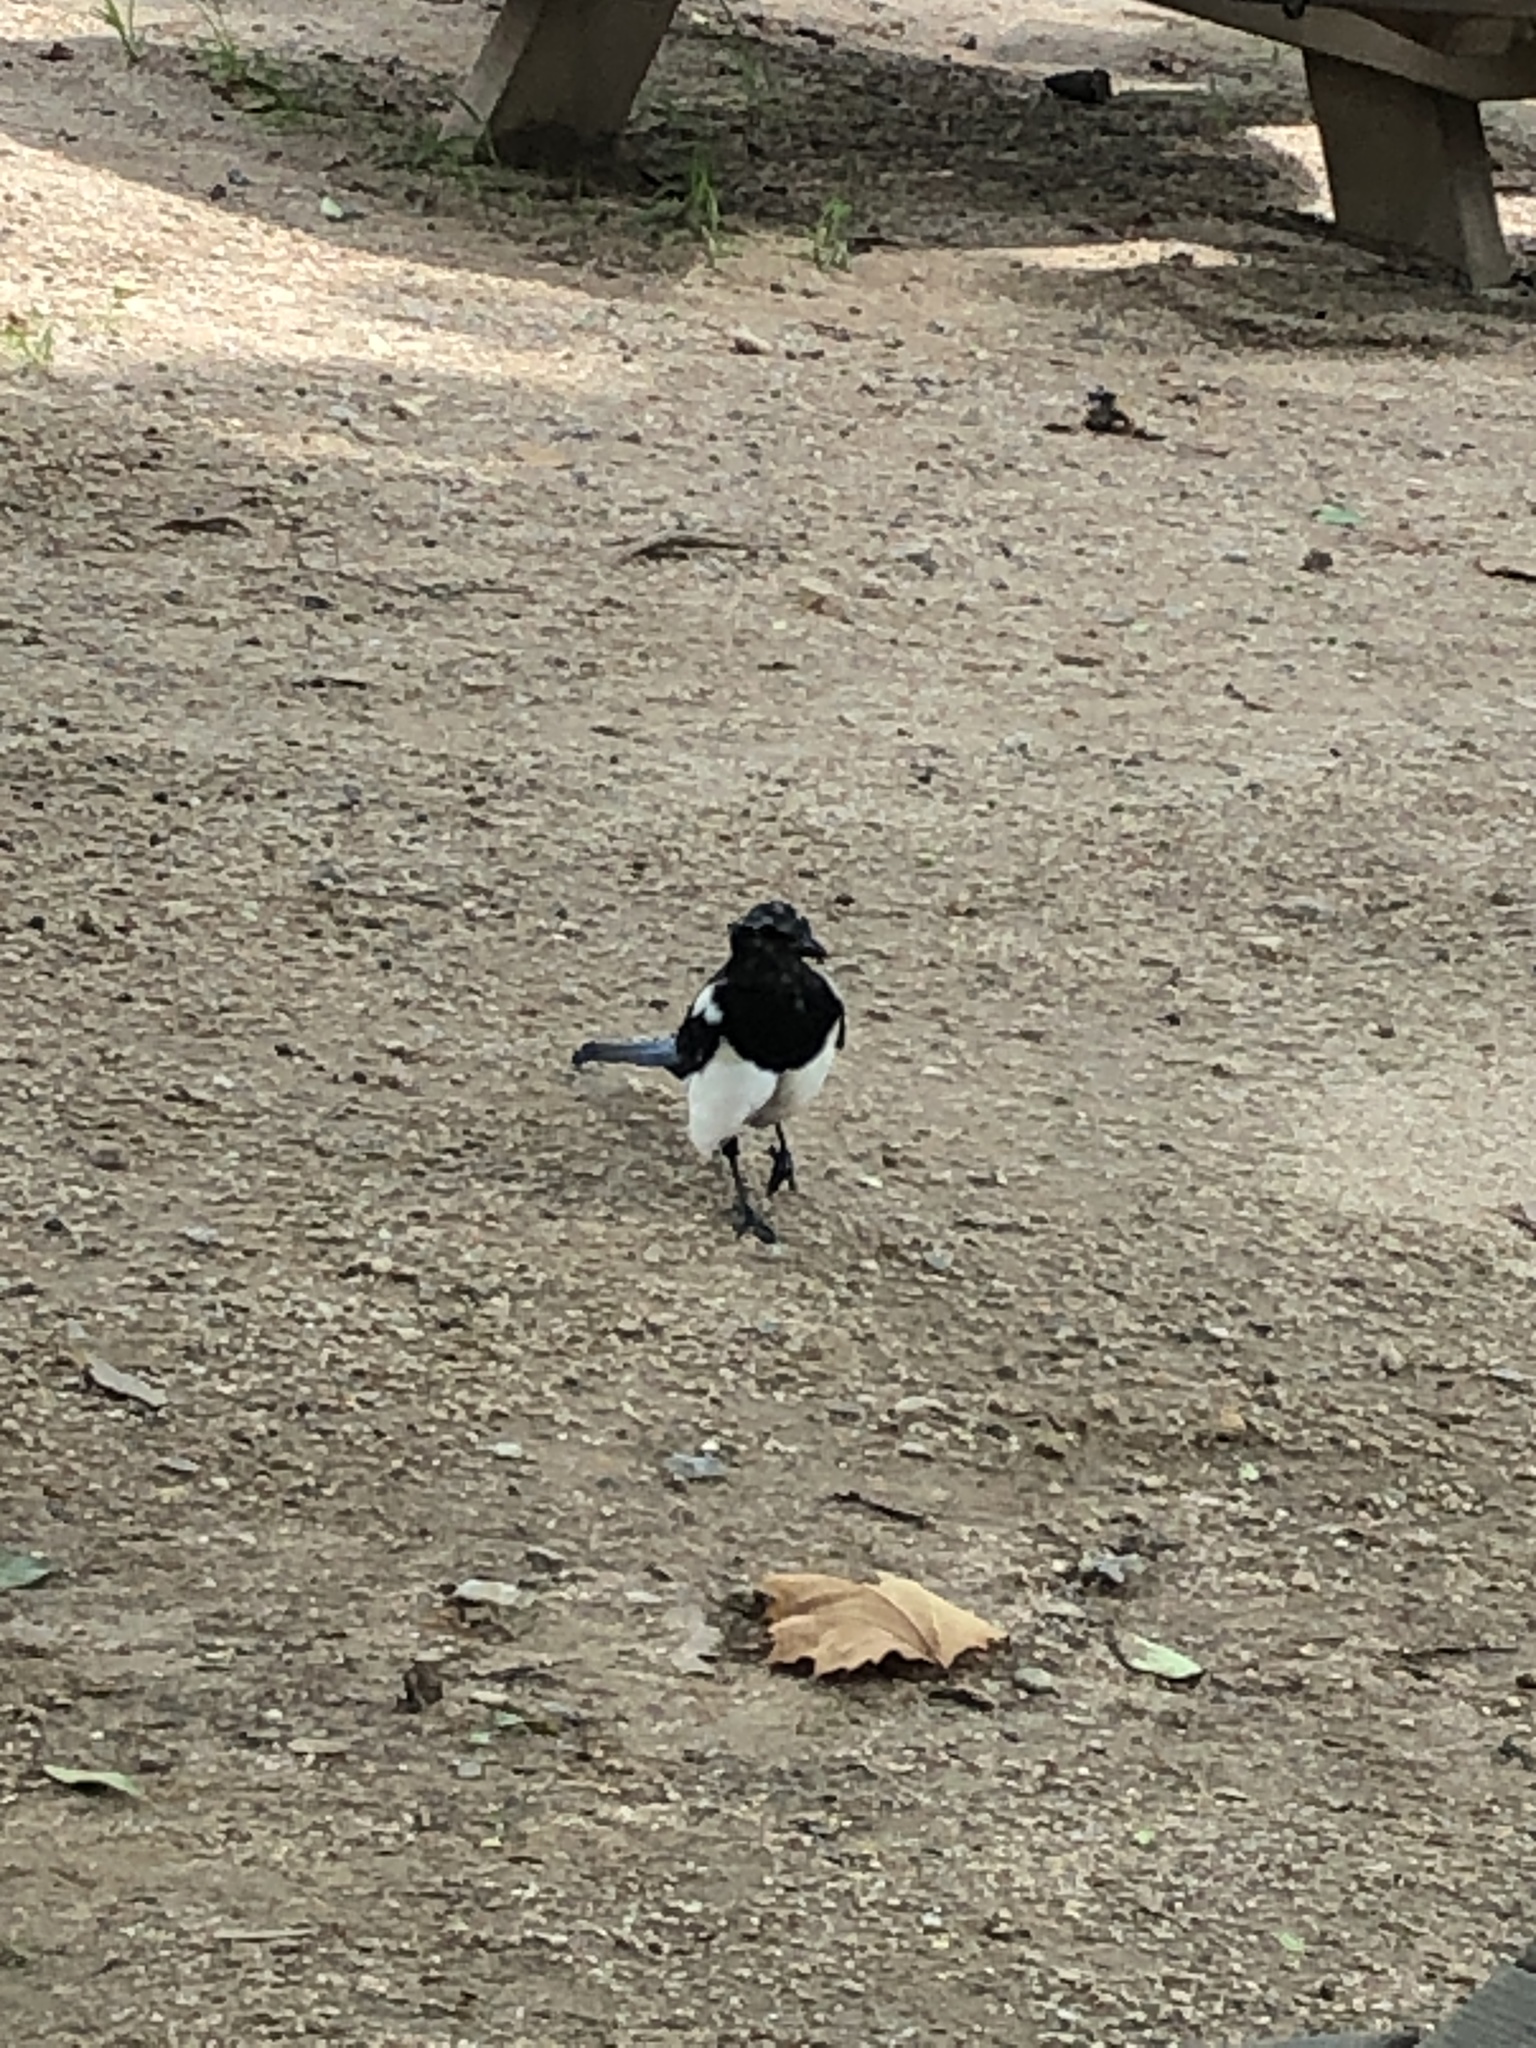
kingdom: Animalia
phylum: Chordata
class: Aves
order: Passeriformes
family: Corvidae
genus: Pica
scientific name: Pica serica
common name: Oriental magpie
